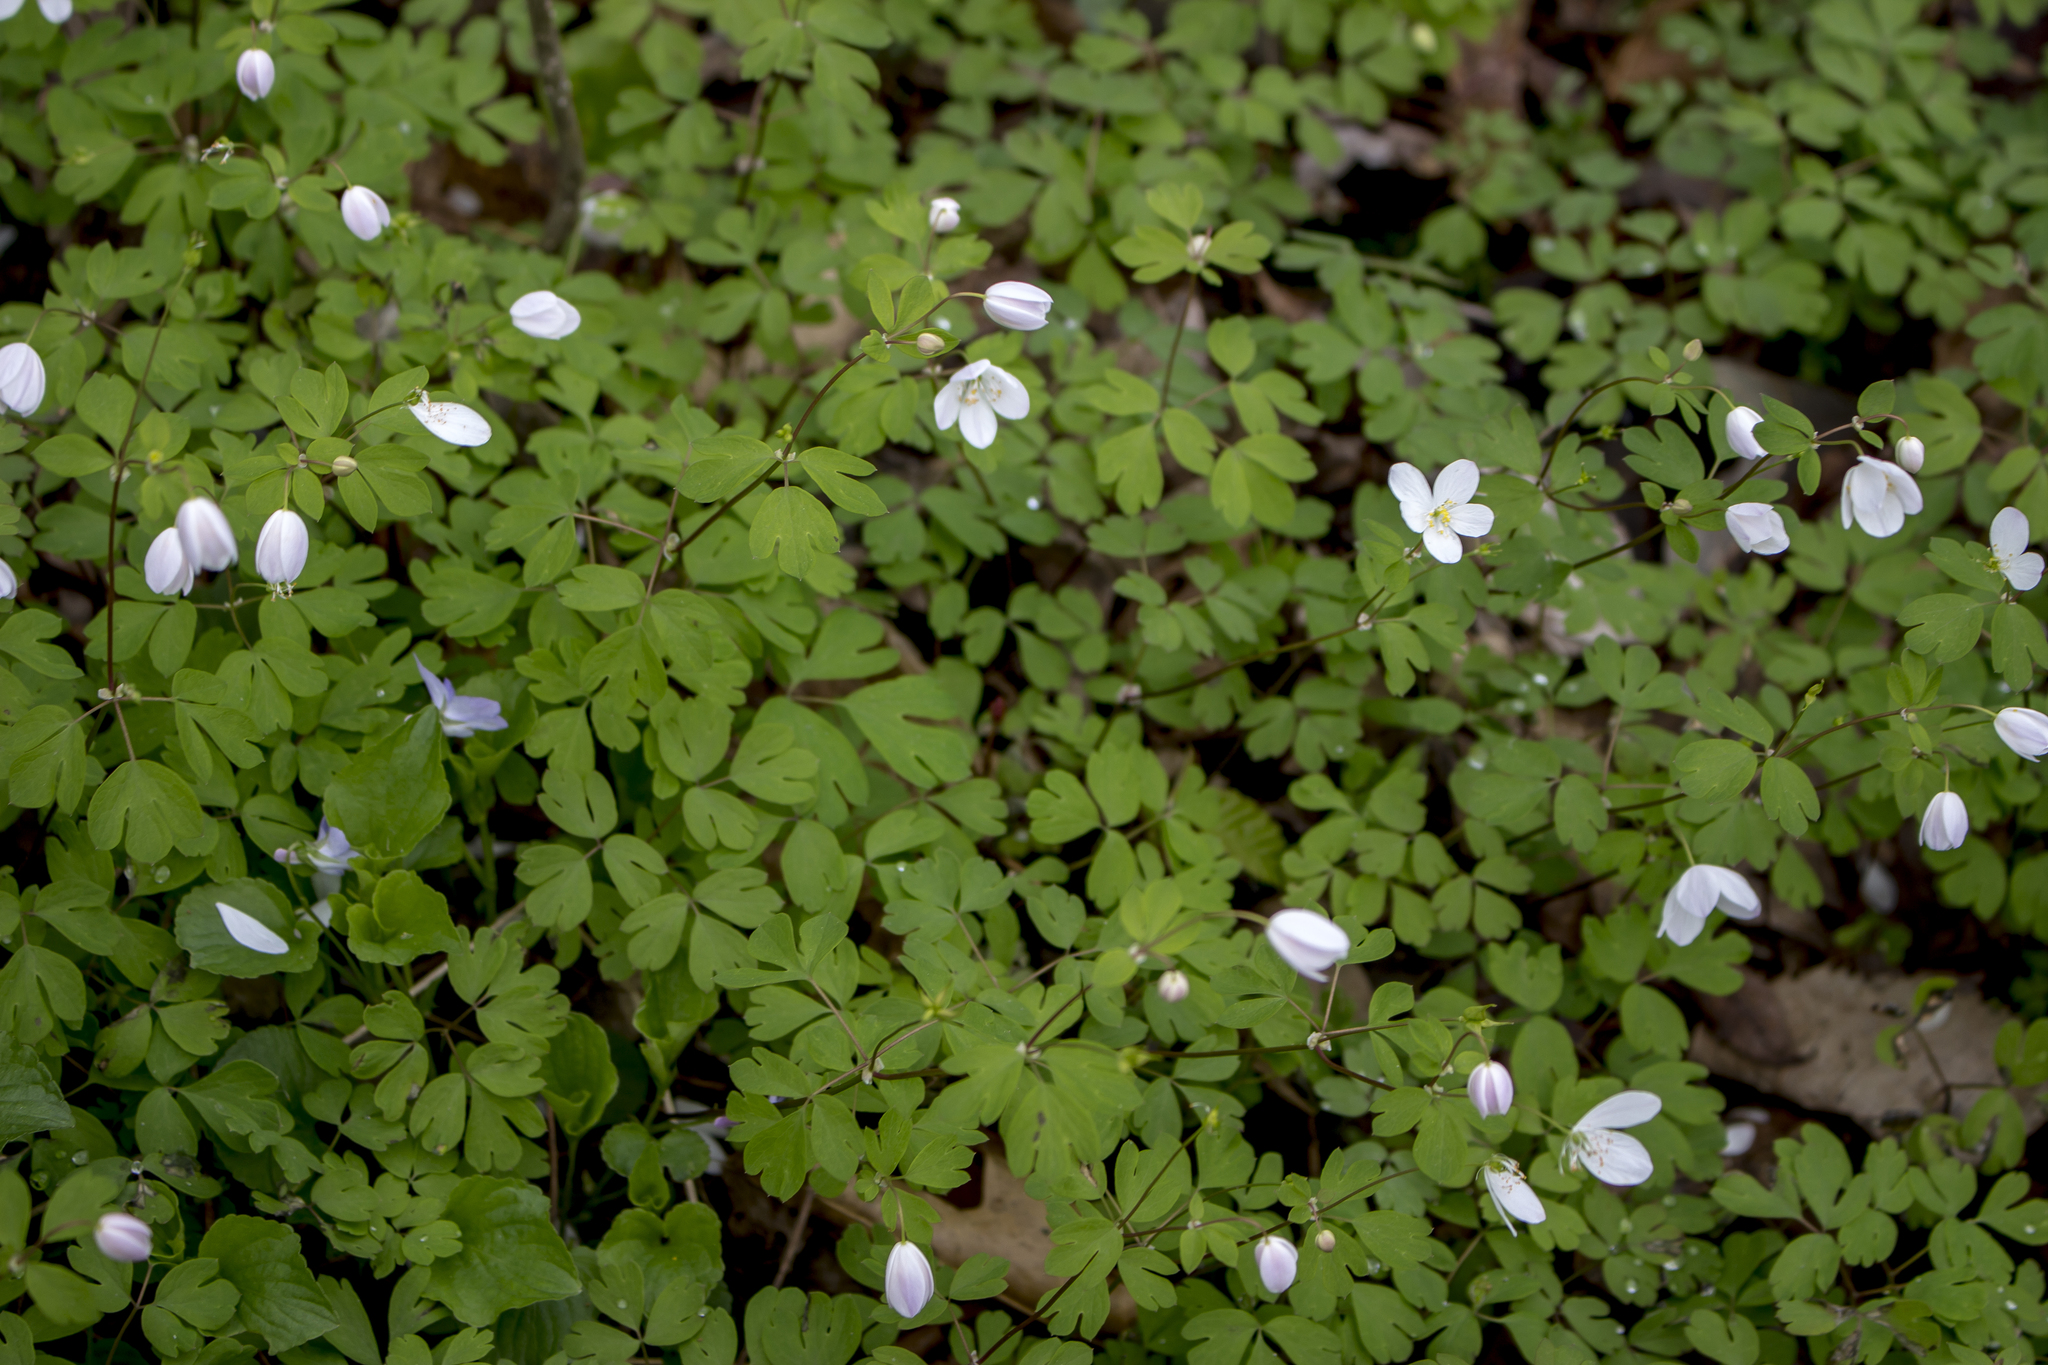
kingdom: Plantae
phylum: Tracheophyta
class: Magnoliopsida
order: Ranunculales
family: Ranunculaceae
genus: Enemion
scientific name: Enemion biternatum
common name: Eastern false rue-anemone
